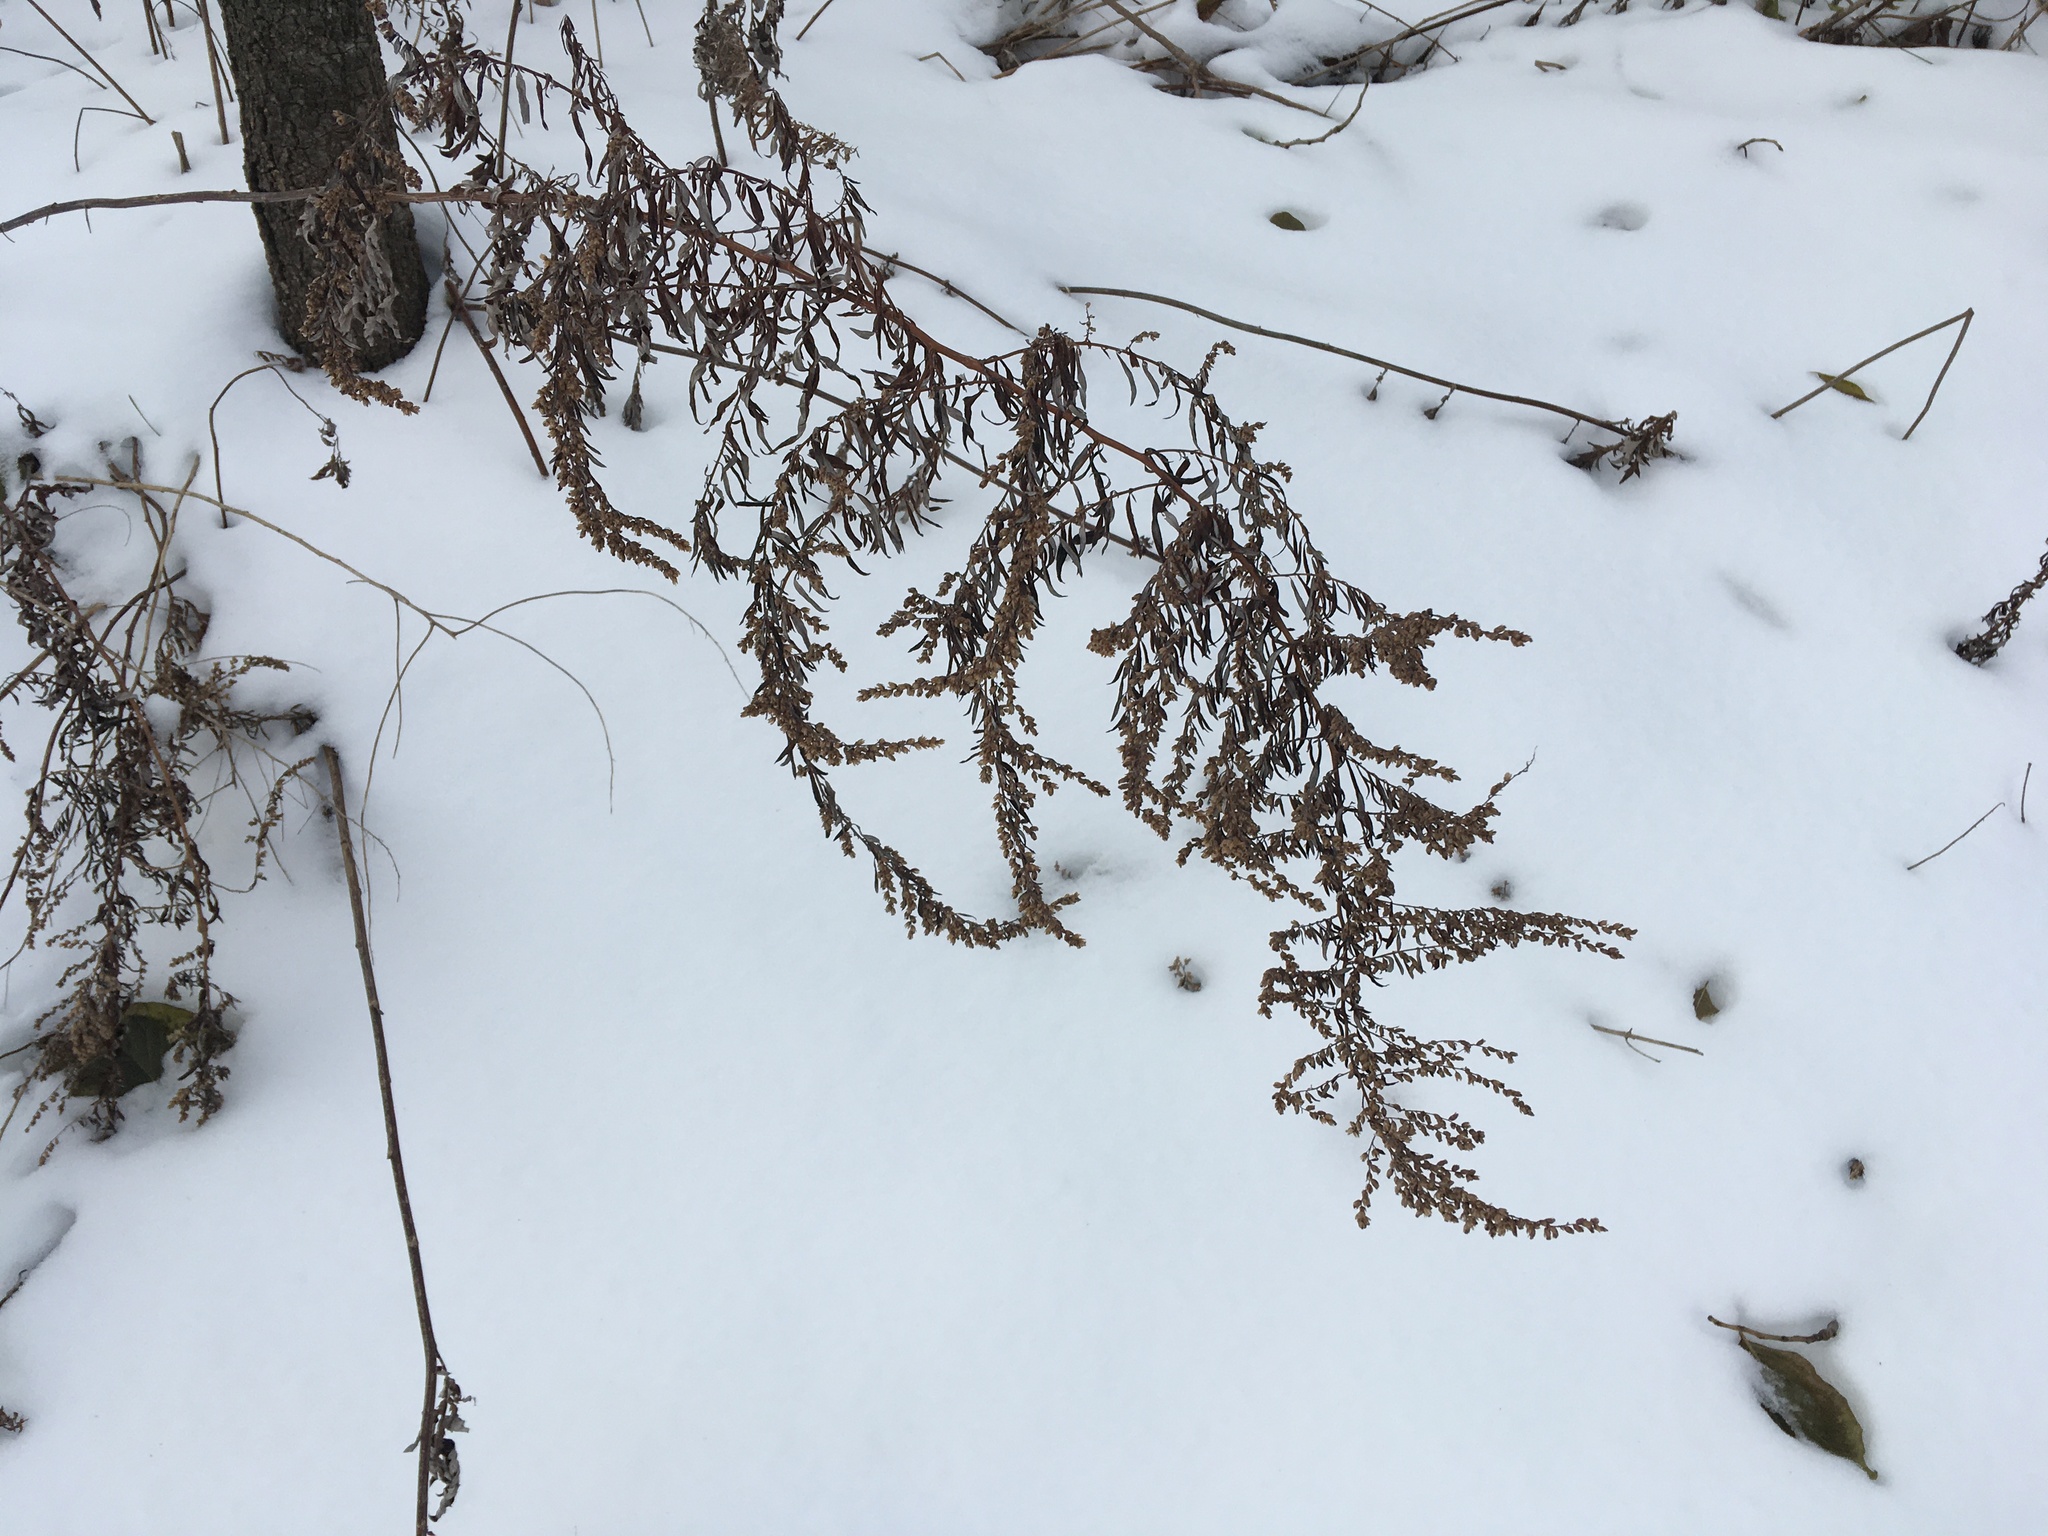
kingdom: Plantae
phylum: Tracheophyta
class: Magnoliopsida
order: Asterales
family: Asteraceae
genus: Artemisia
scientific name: Artemisia vulgaris
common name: Mugwort
